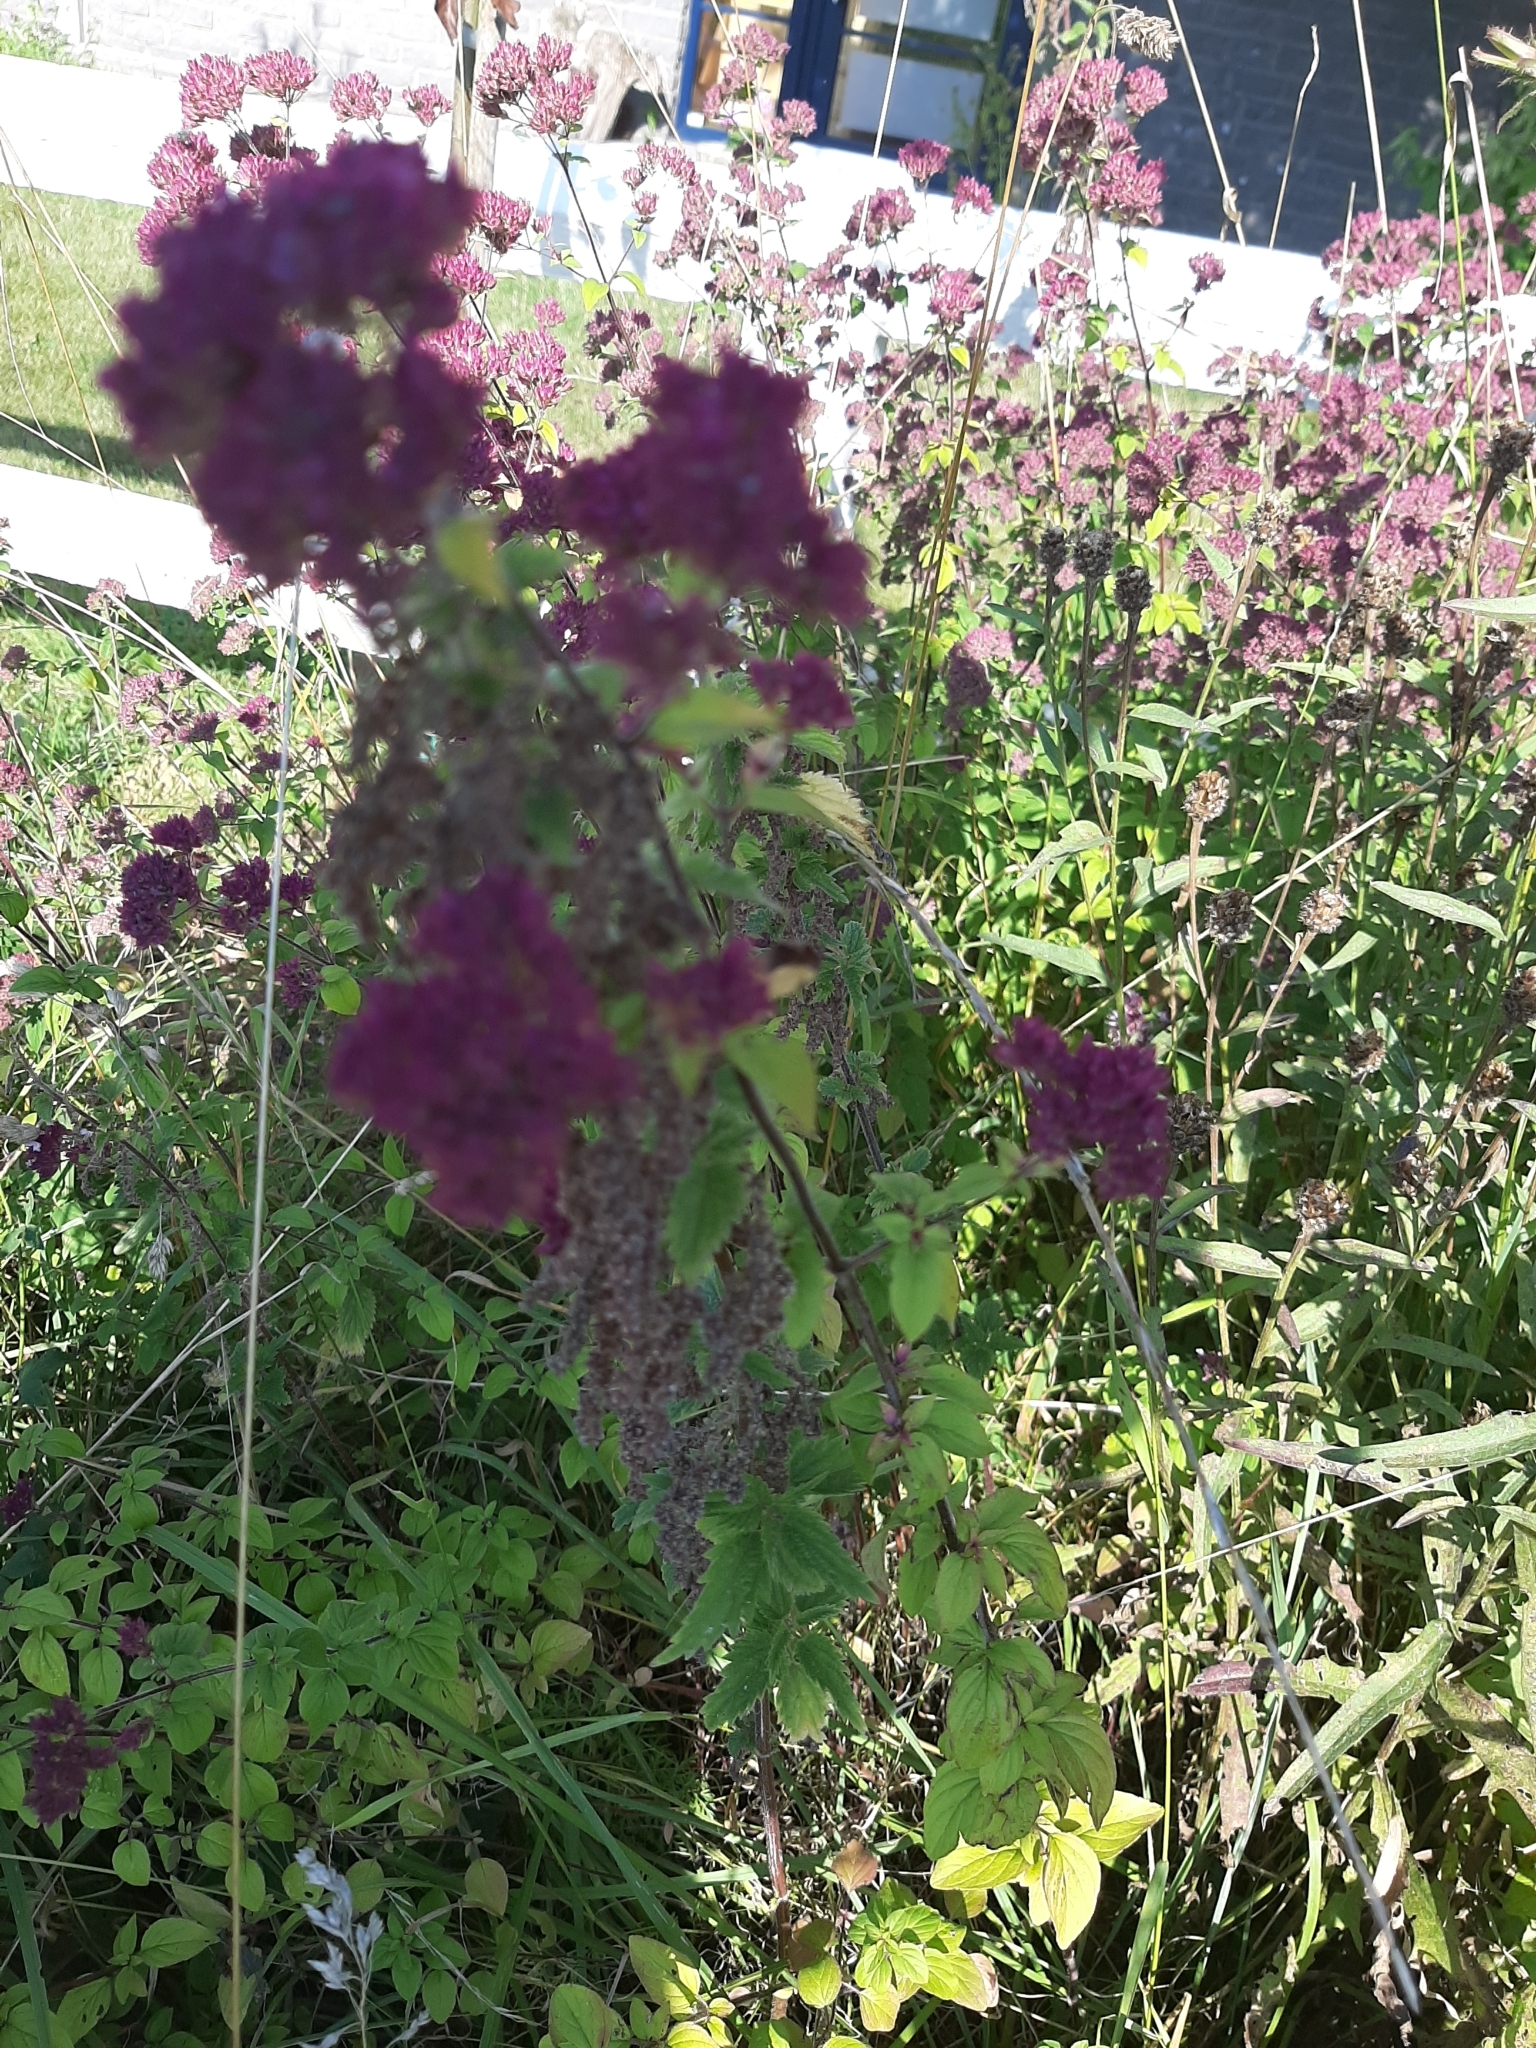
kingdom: Plantae
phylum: Tracheophyta
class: Magnoliopsida
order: Lamiales
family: Lamiaceae
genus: Origanum
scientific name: Origanum vulgare
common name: Wild marjoram
